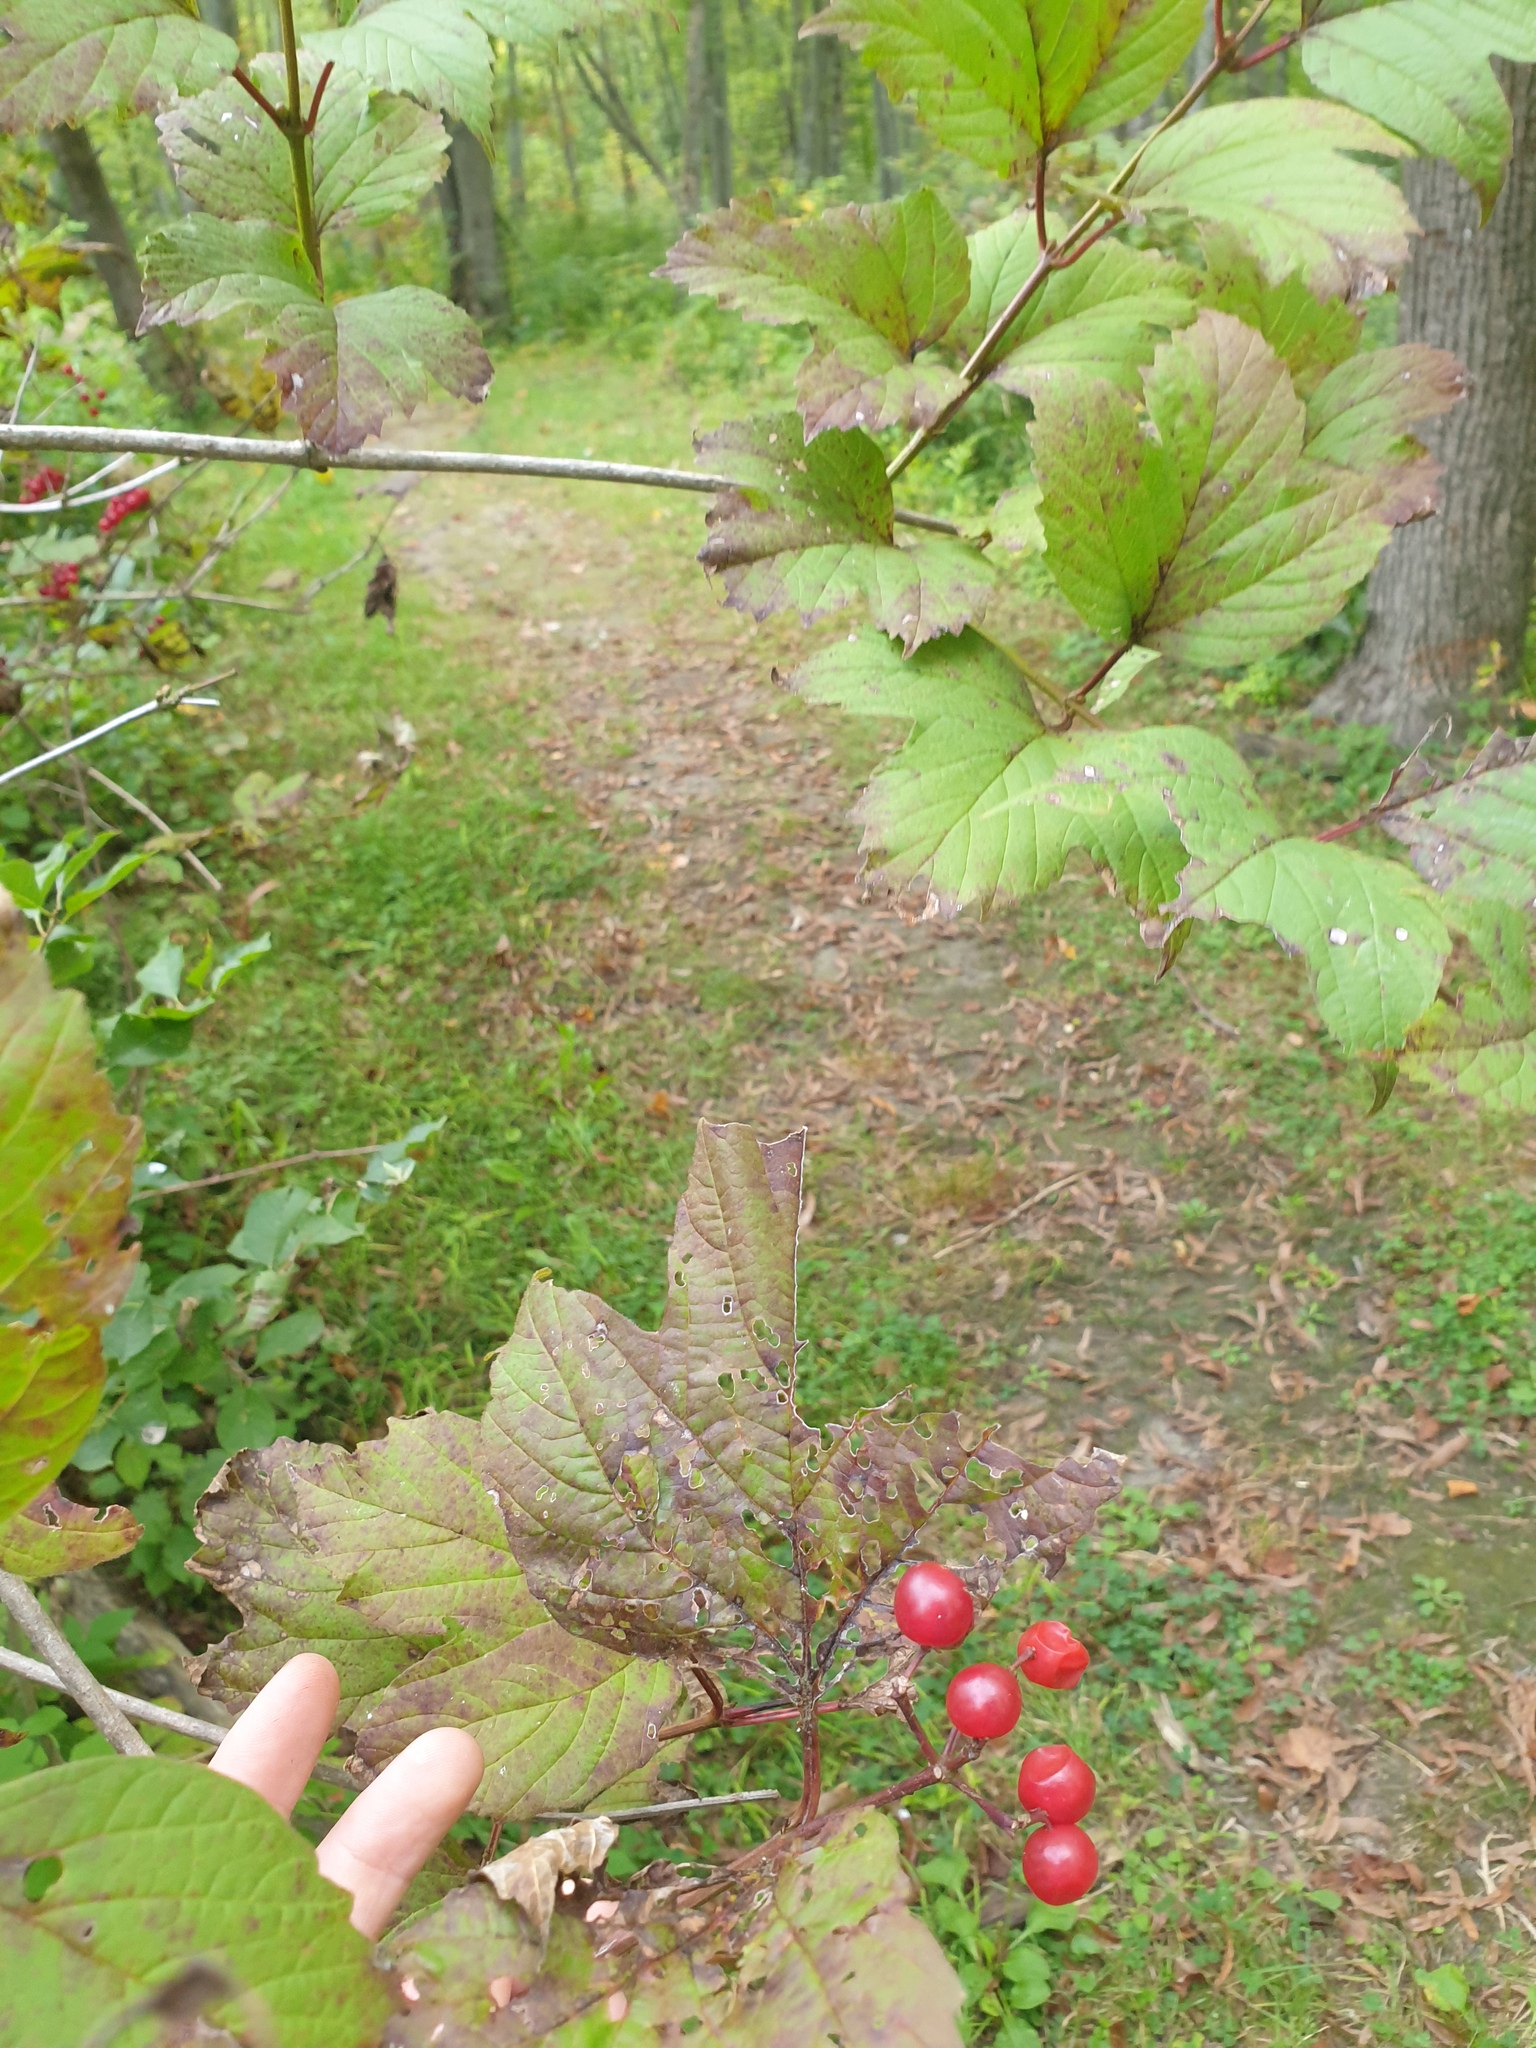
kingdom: Plantae
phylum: Tracheophyta
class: Magnoliopsida
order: Dipsacales
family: Viburnaceae
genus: Viburnum
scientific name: Viburnum trilobum
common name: American cranberrybush
